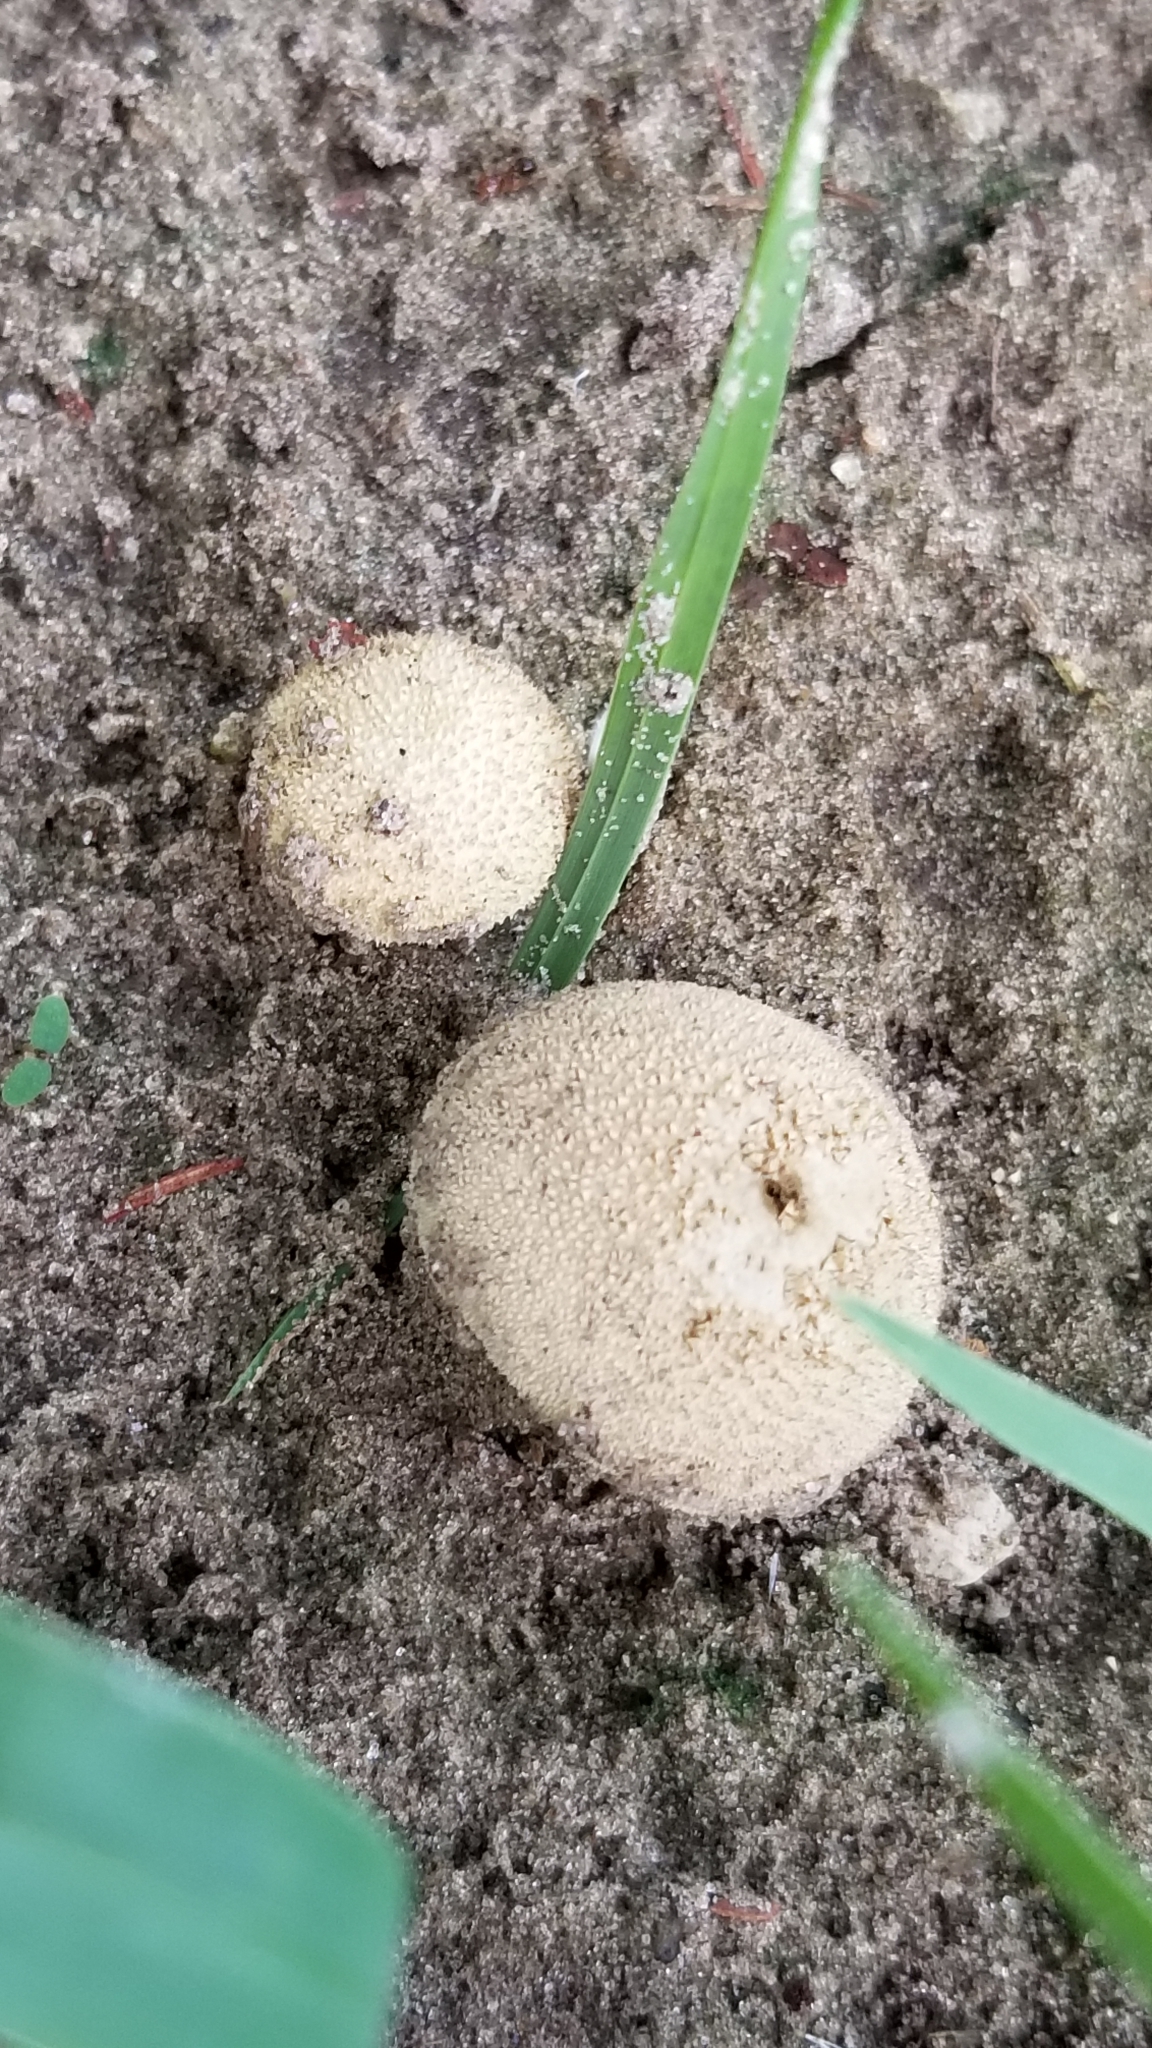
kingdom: Fungi
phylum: Basidiomycota
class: Agaricomycetes
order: Agaricales
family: Lycoperdaceae
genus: Lycoperdon
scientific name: Lycoperdon perlatum
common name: Common puffball
